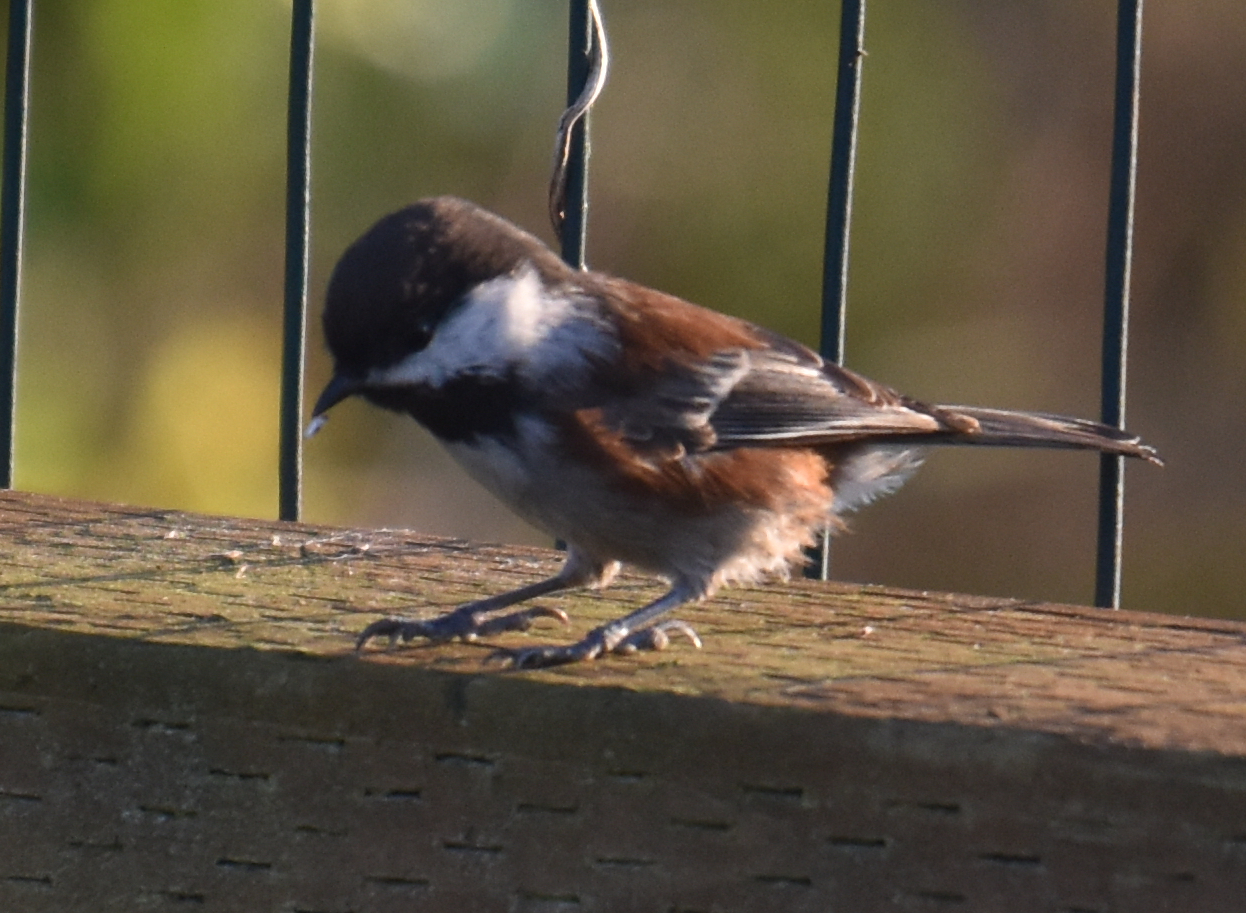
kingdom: Animalia
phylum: Chordata
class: Aves
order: Passeriformes
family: Paridae
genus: Poecile
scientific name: Poecile rufescens
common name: Chestnut-backed chickadee
